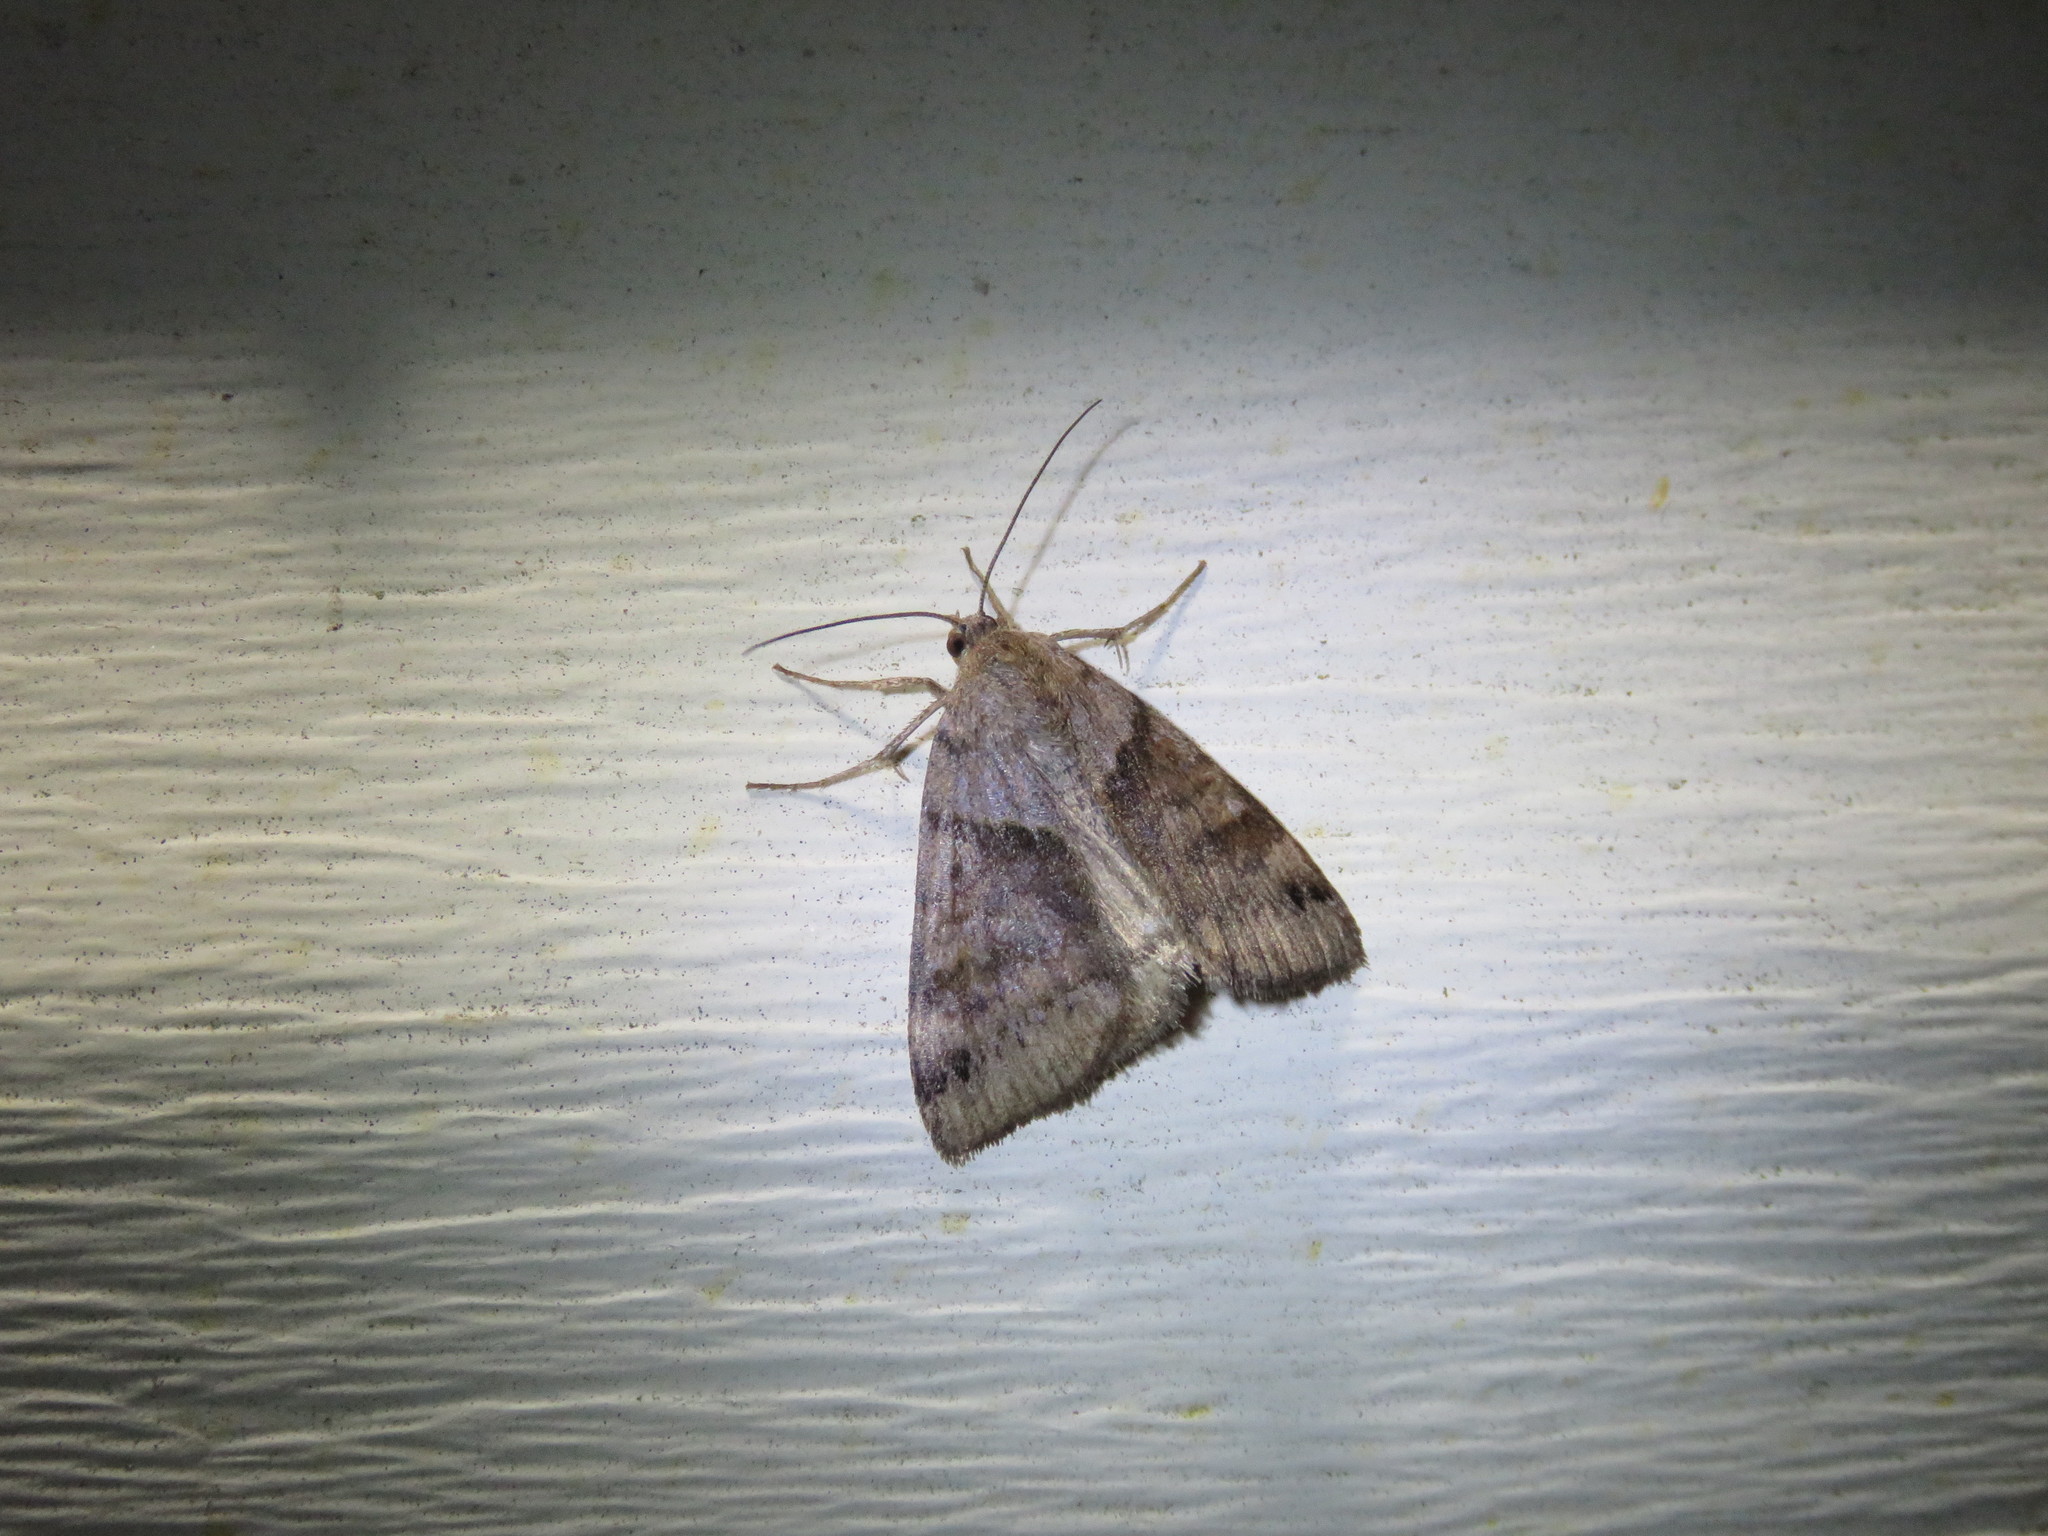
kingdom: Animalia
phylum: Arthropoda
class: Insecta
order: Lepidoptera
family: Erebidae
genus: Caenurgina
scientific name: Caenurgina crassiuscula
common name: Double-barred
